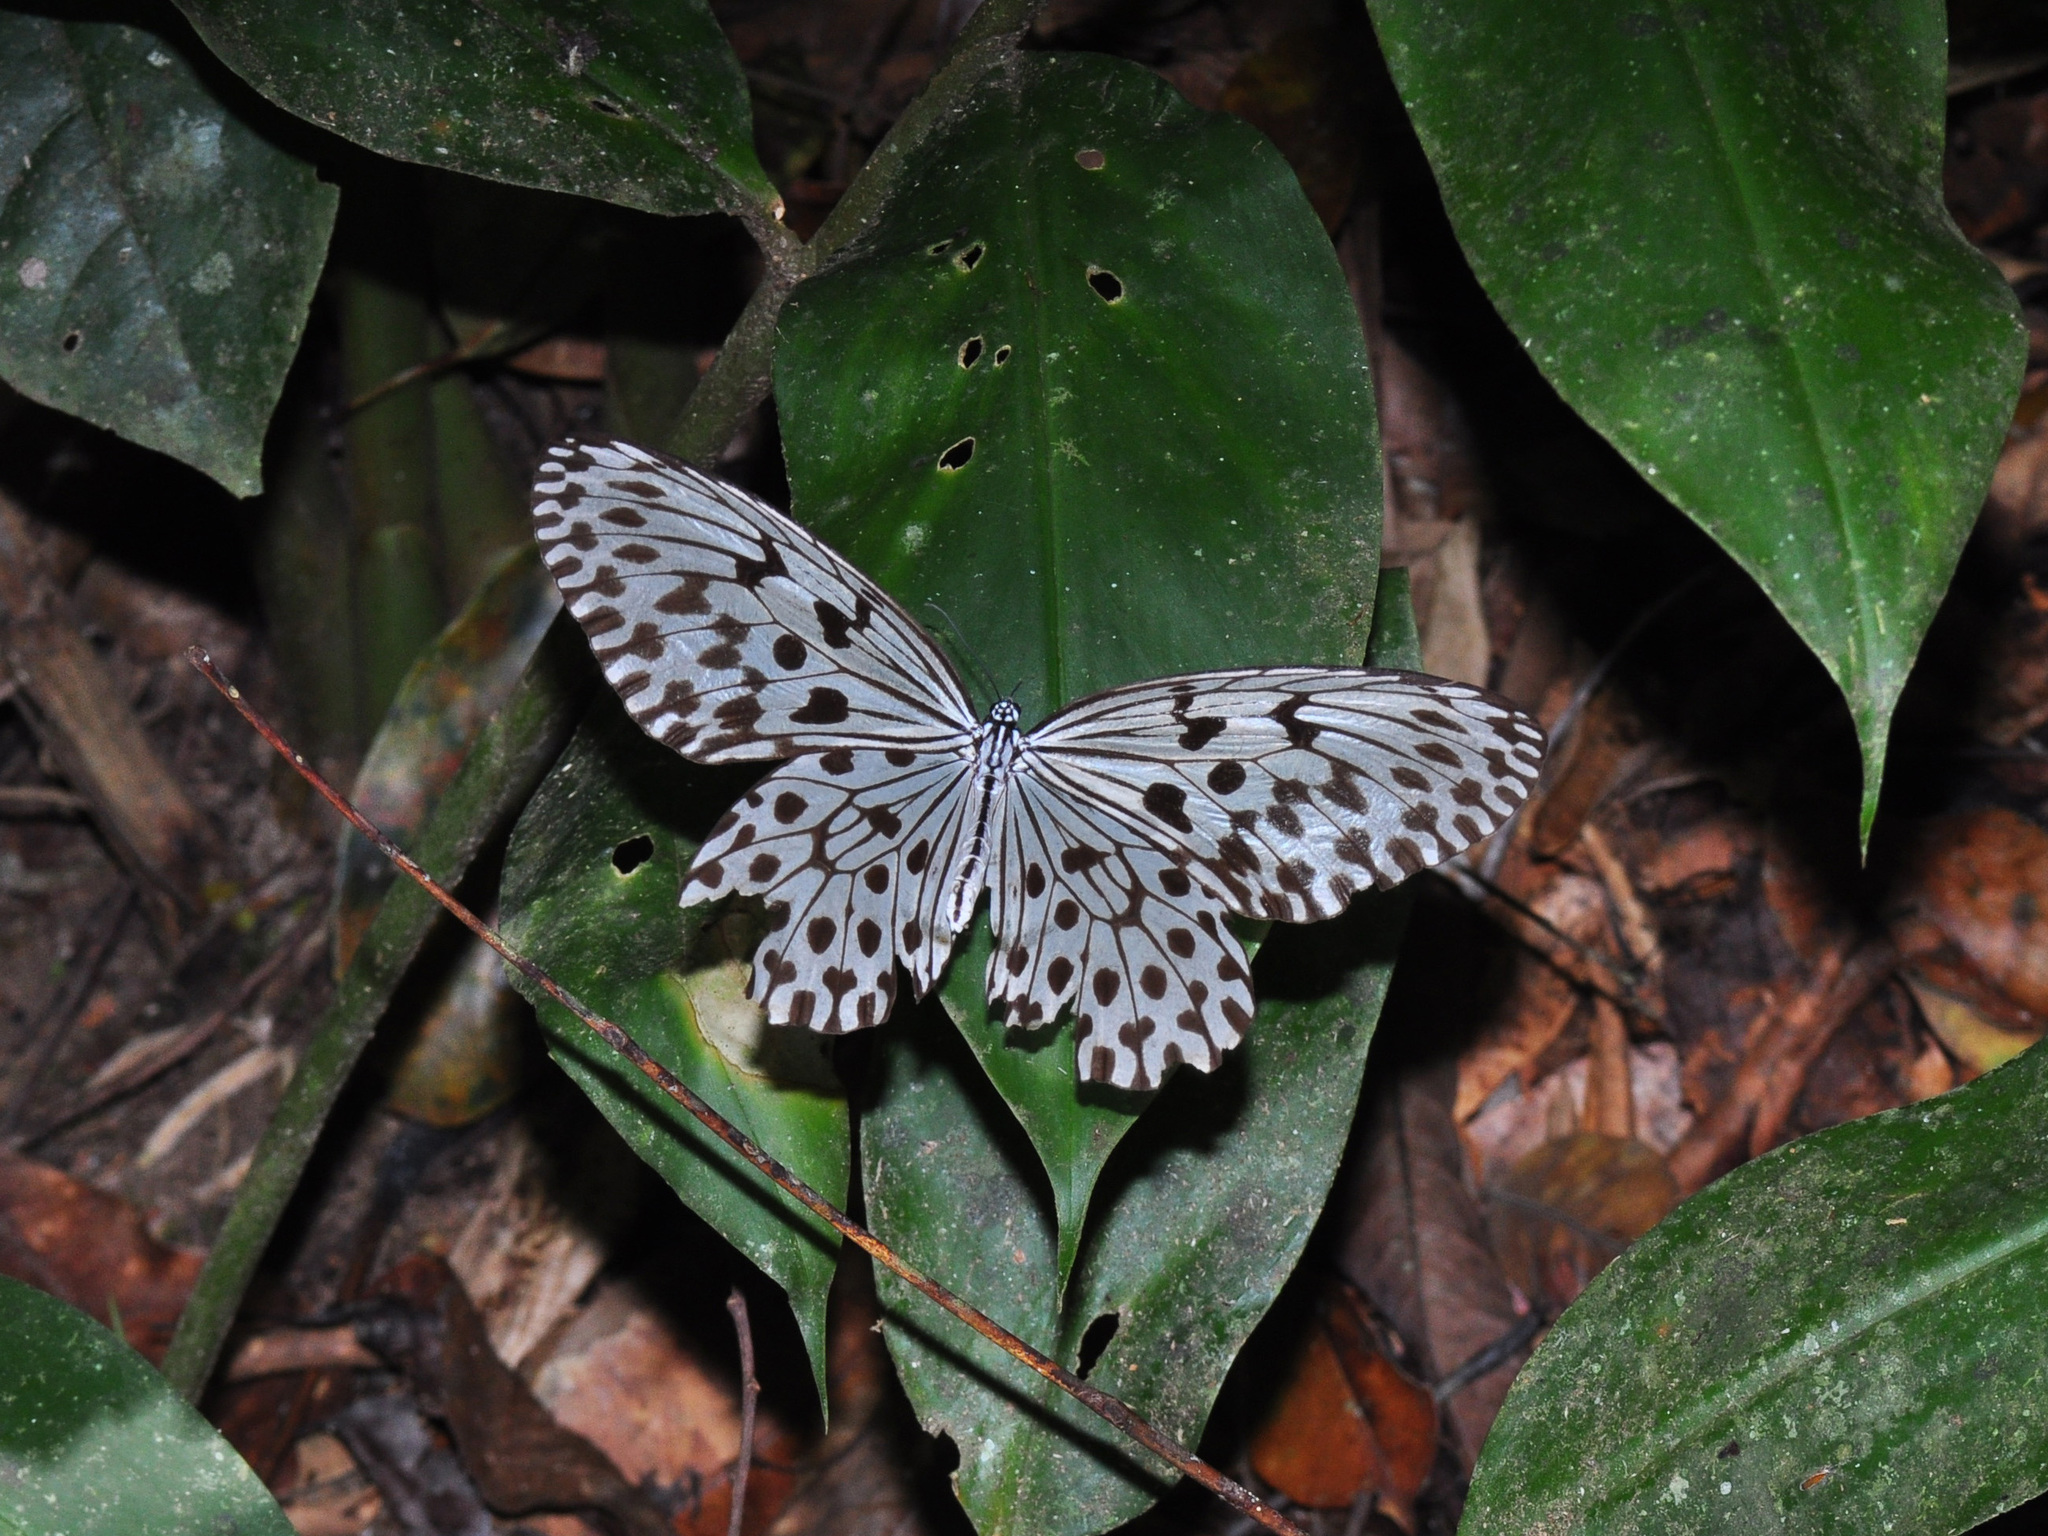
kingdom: Animalia
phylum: Arthropoda
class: Insecta
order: Lepidoptera
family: Nymphalidae
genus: Idea
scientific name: Idea hypermnestra
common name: Malayan tree nymph
